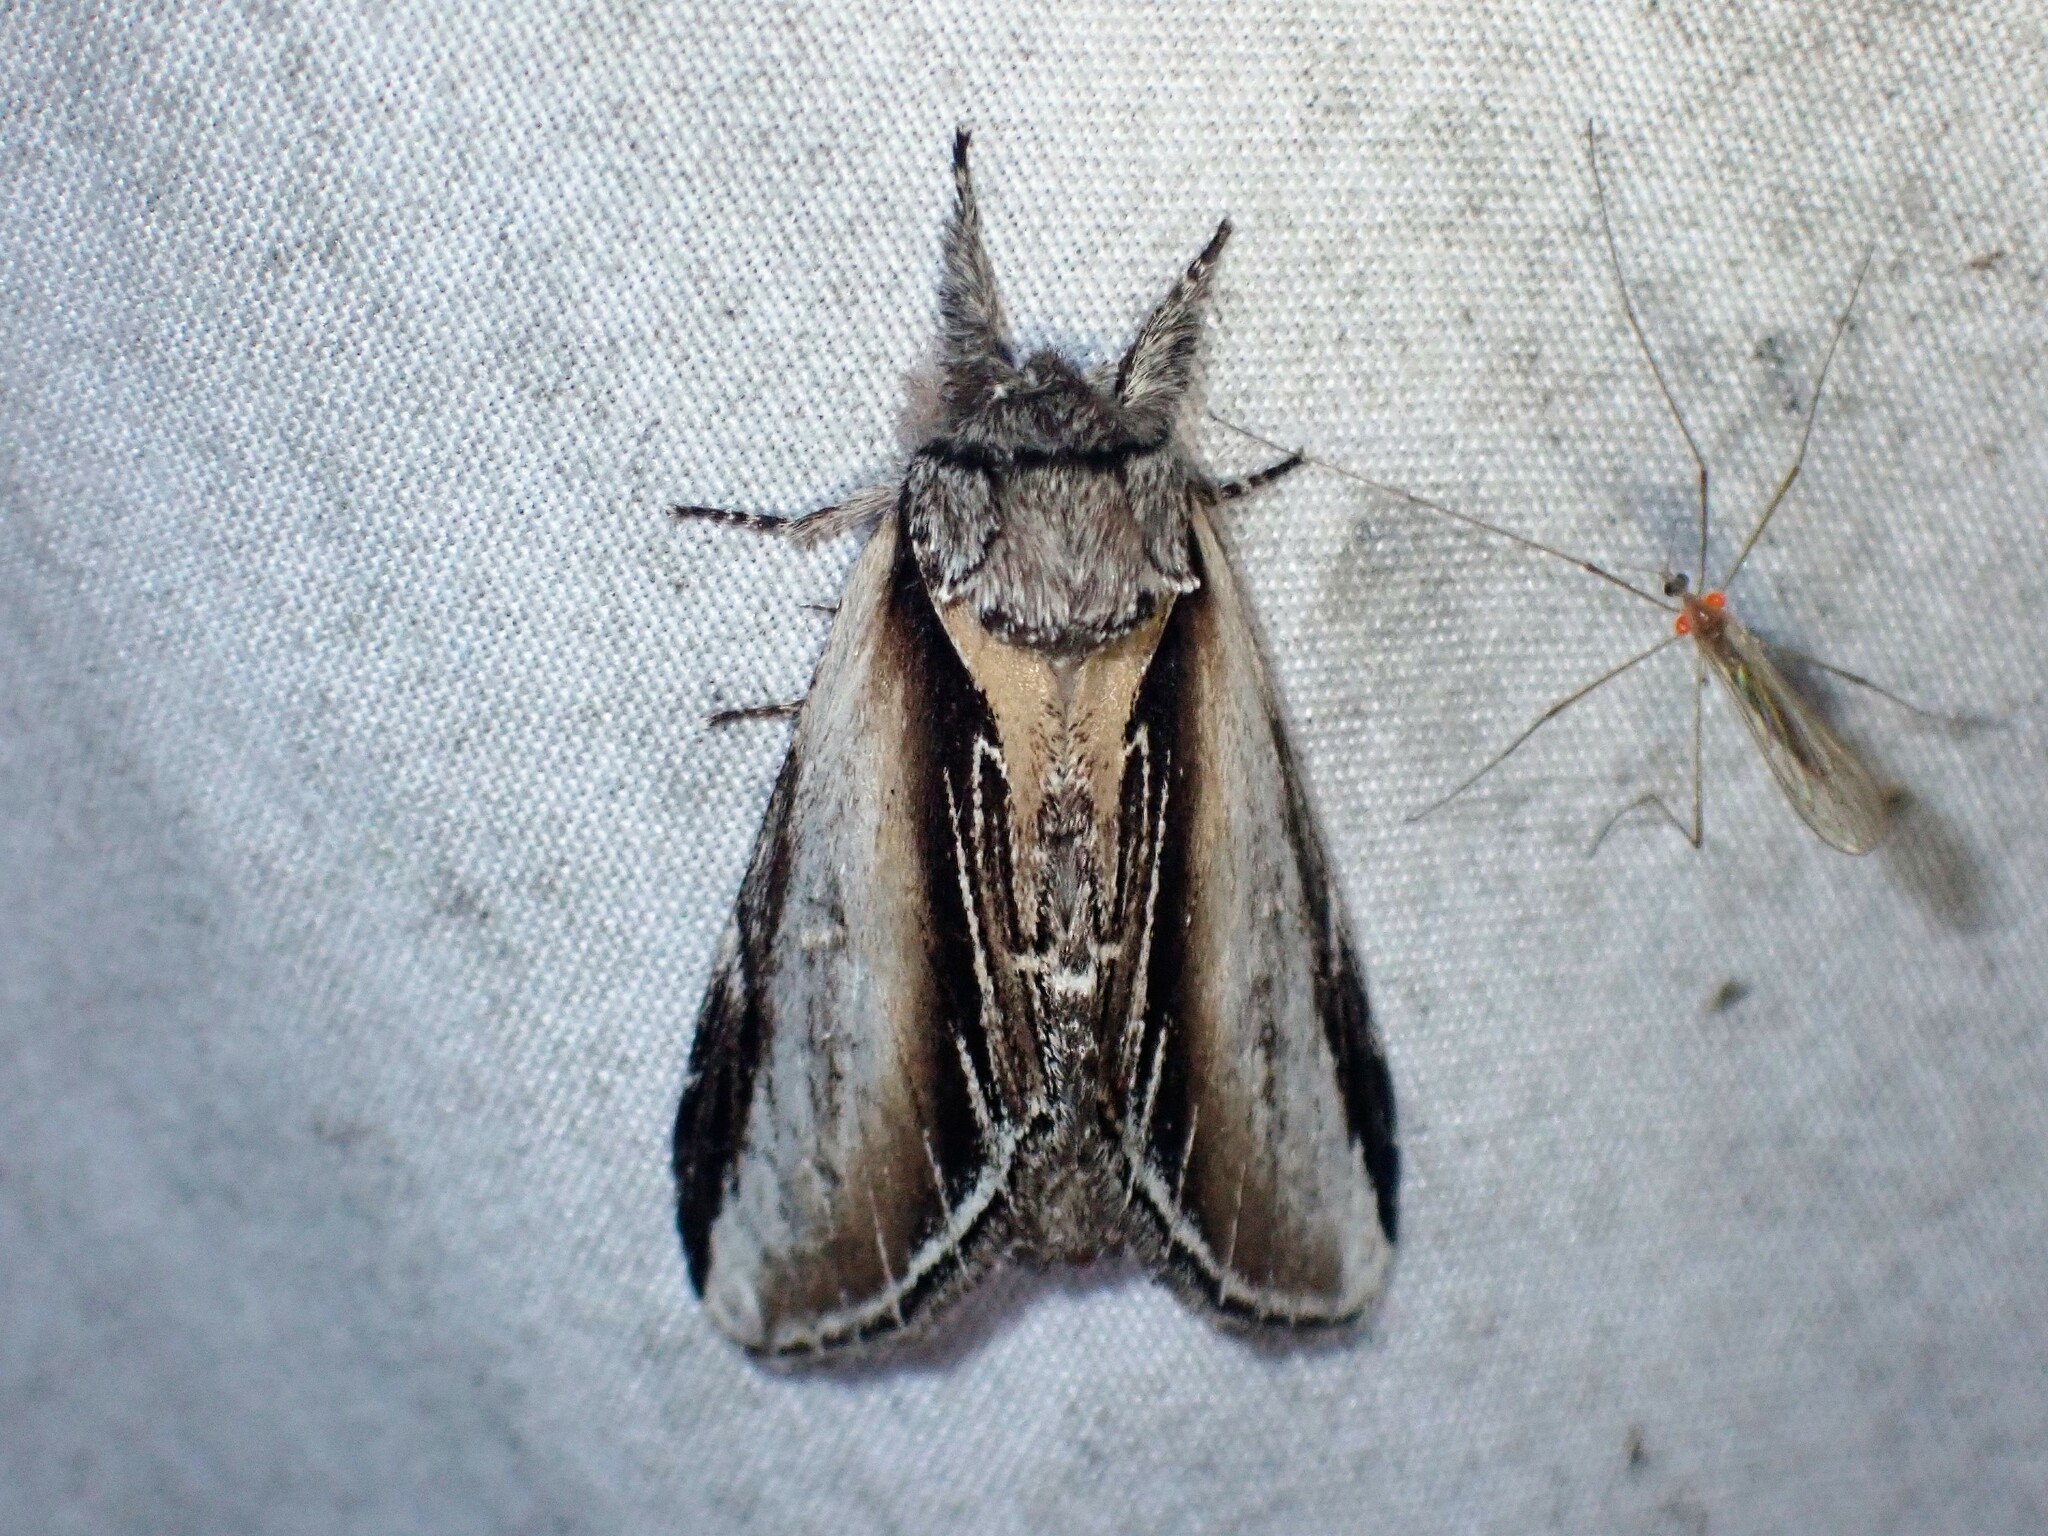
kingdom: Animalia
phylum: Arthropoda
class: Insecta
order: Lepidoptera
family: Notodontidae
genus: Pheosia
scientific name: Pheosia rimosa
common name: Black-rimmed prominent
